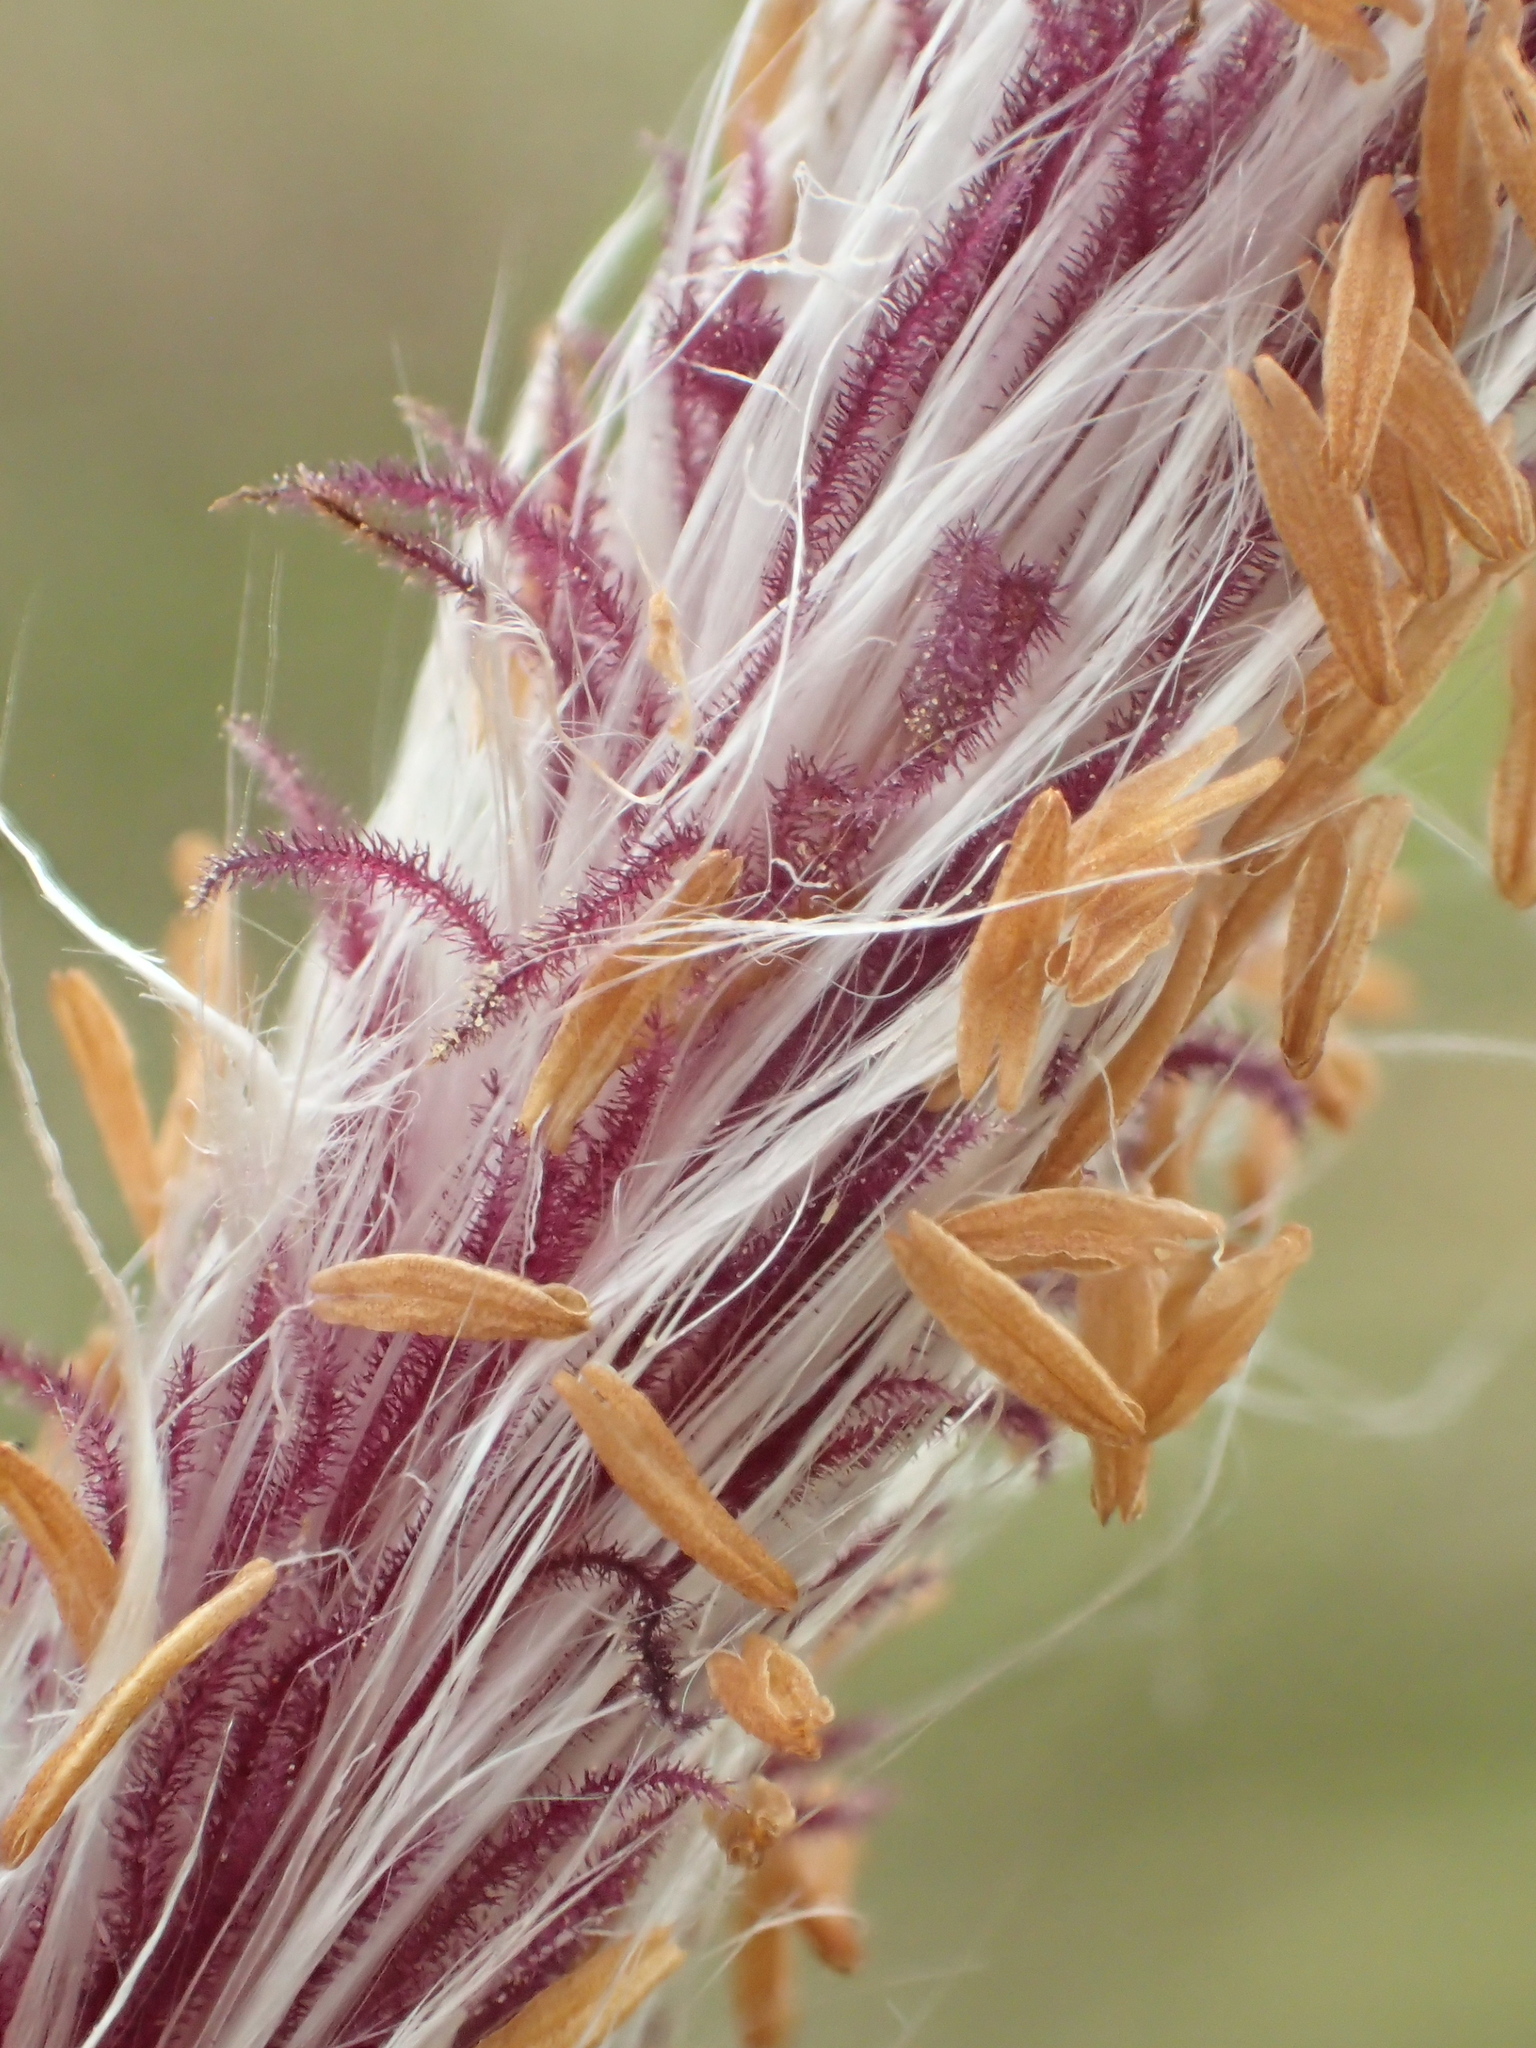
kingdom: Plantae
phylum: Tracheophyta
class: Liliopsida
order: Poales
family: Poaceae
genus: Imperata
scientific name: Imperata cylindrica
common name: Cogongrass
